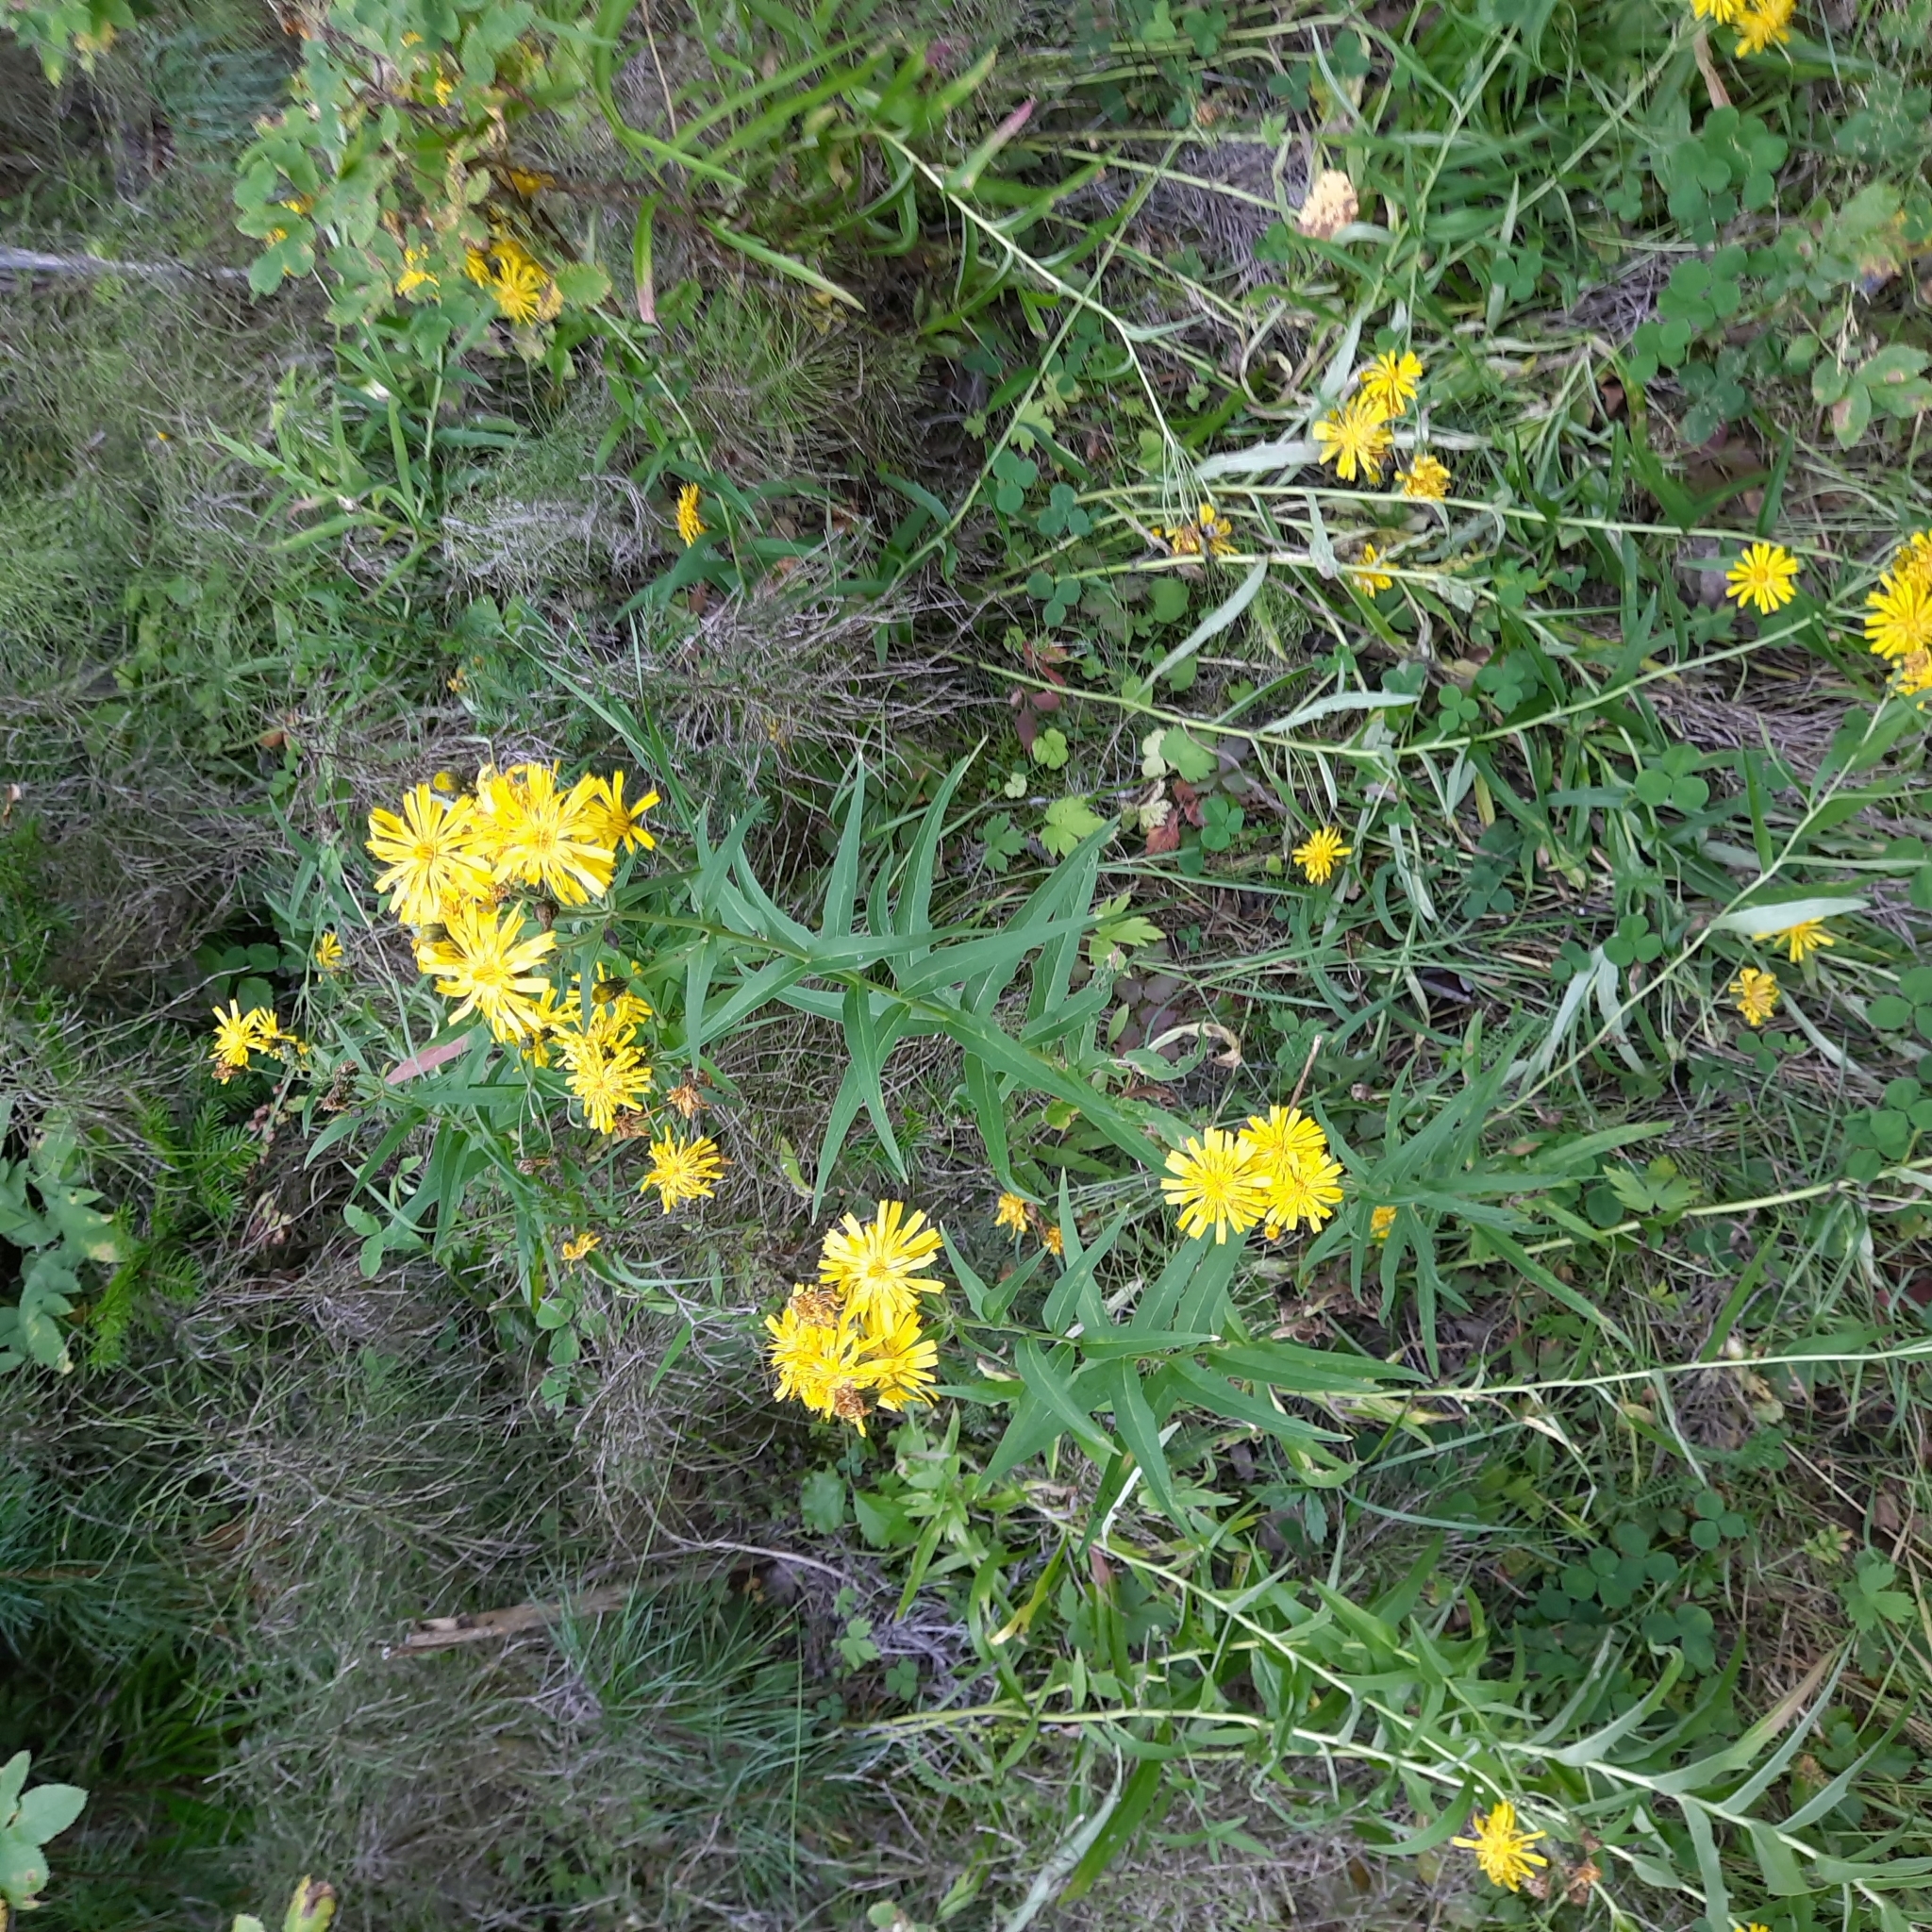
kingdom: Plantae
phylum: Tracheophyta
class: Magnoliopsida
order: Asterales
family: Asteraceae
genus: Hieracium
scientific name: Hieracium umbellatum
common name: Northern hawkweed
